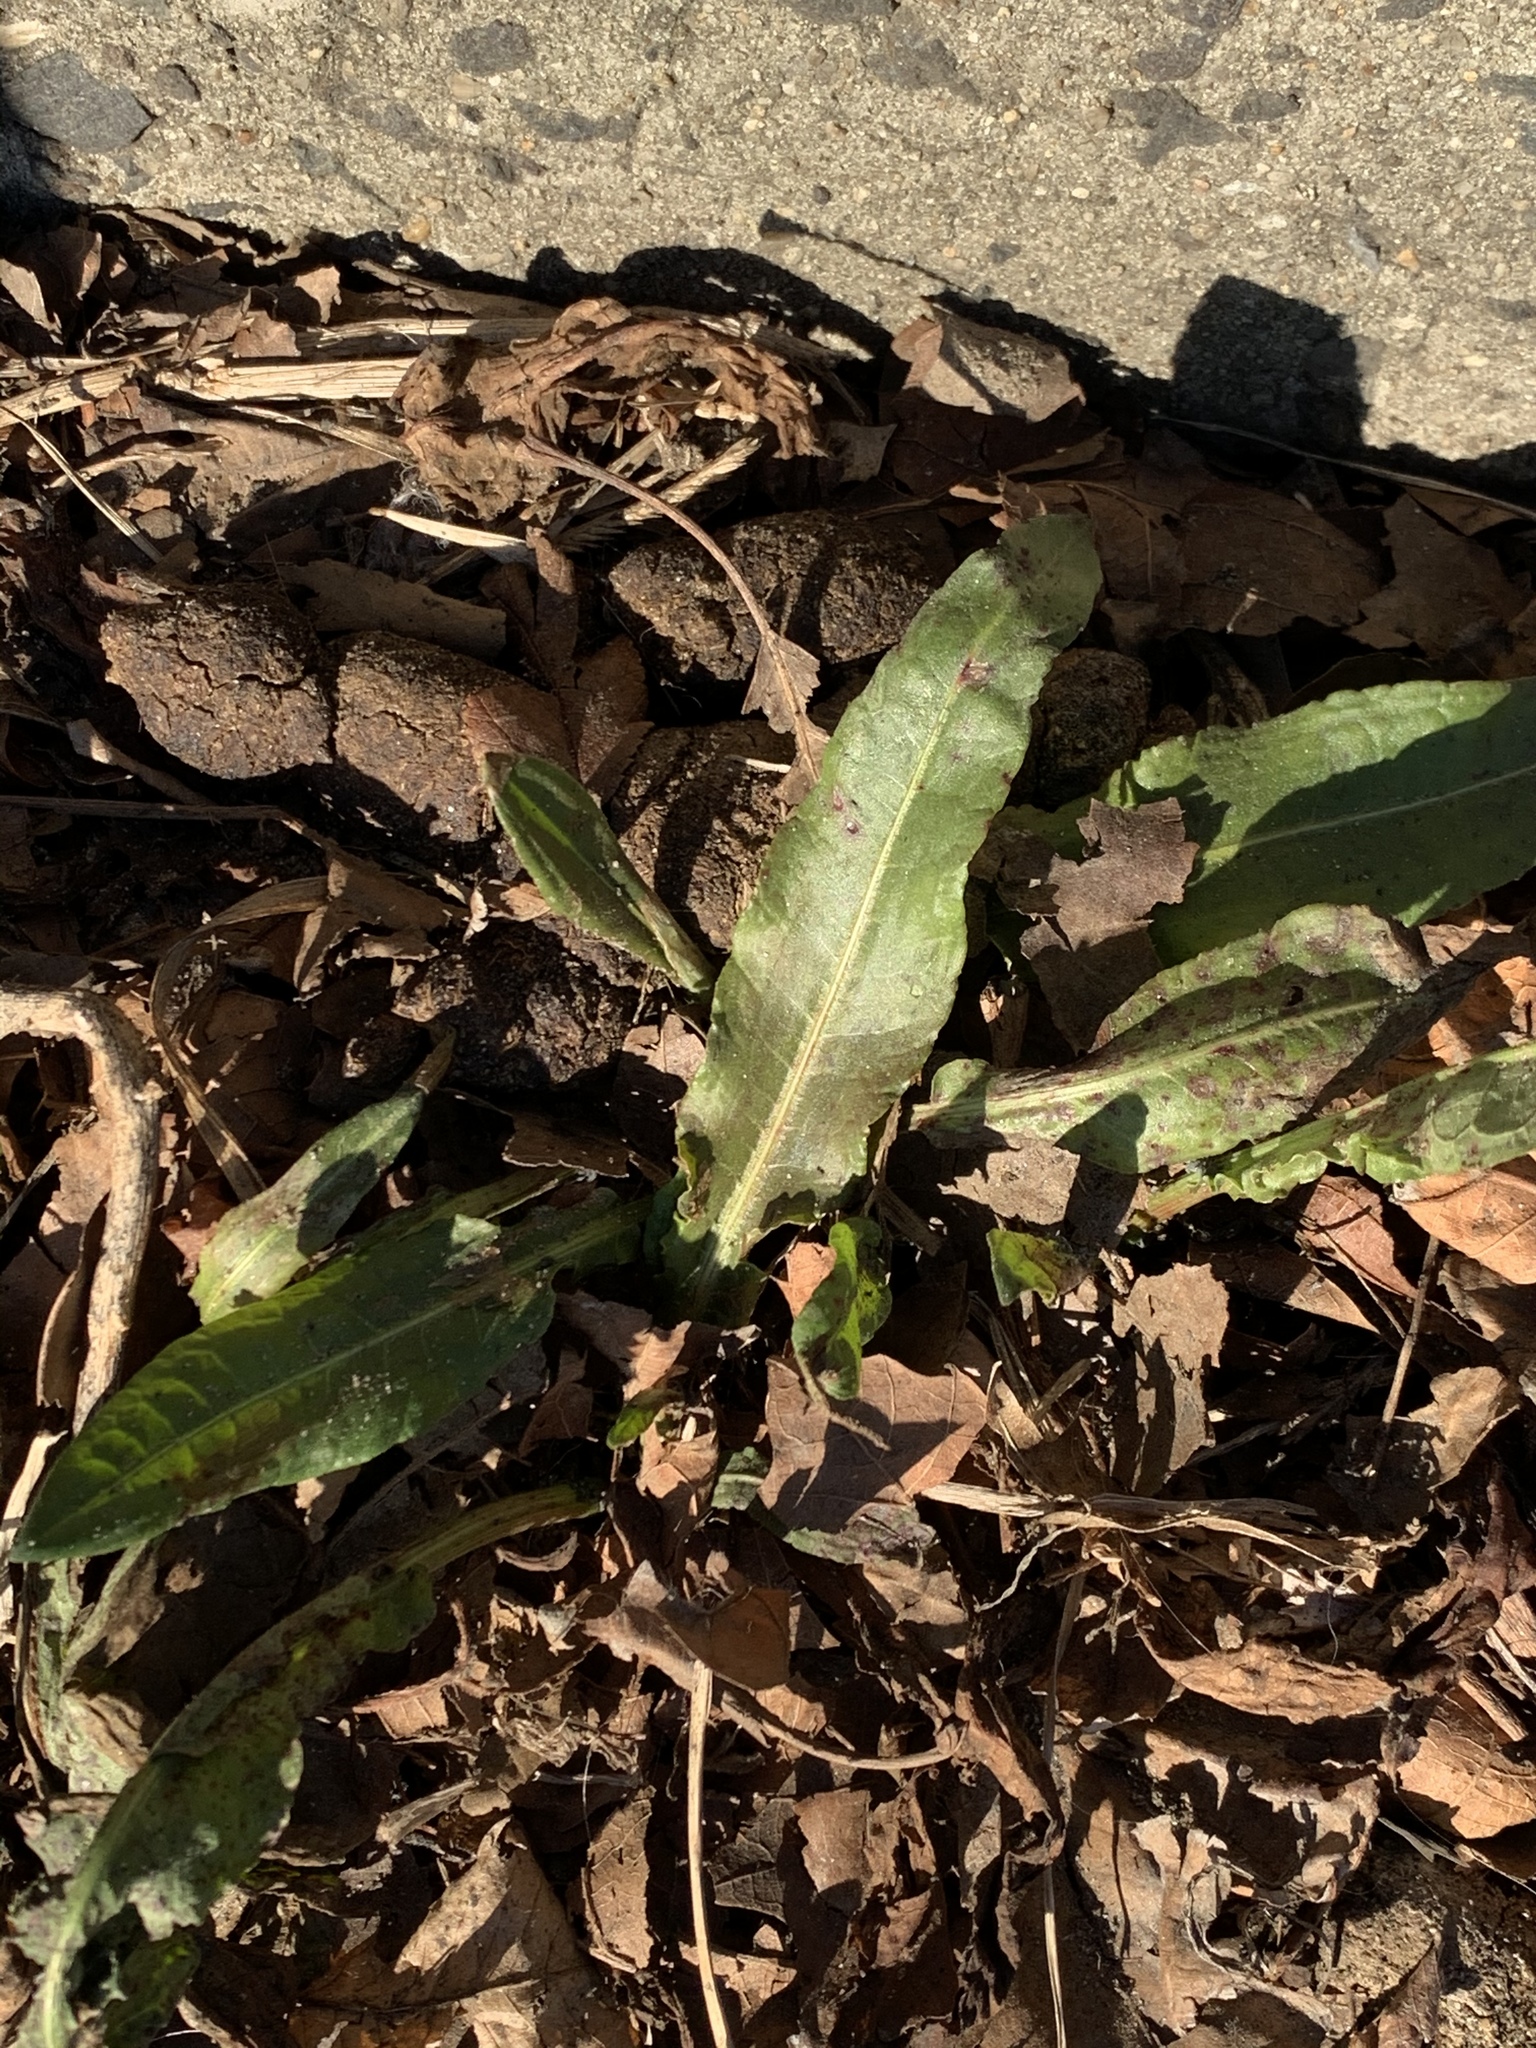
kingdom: Plantae
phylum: Tracheophyta
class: Magnoliopsida
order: Caryophyllales
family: Polygonaceae
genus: Rumex
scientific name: Rumex crispus
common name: Curled dock
